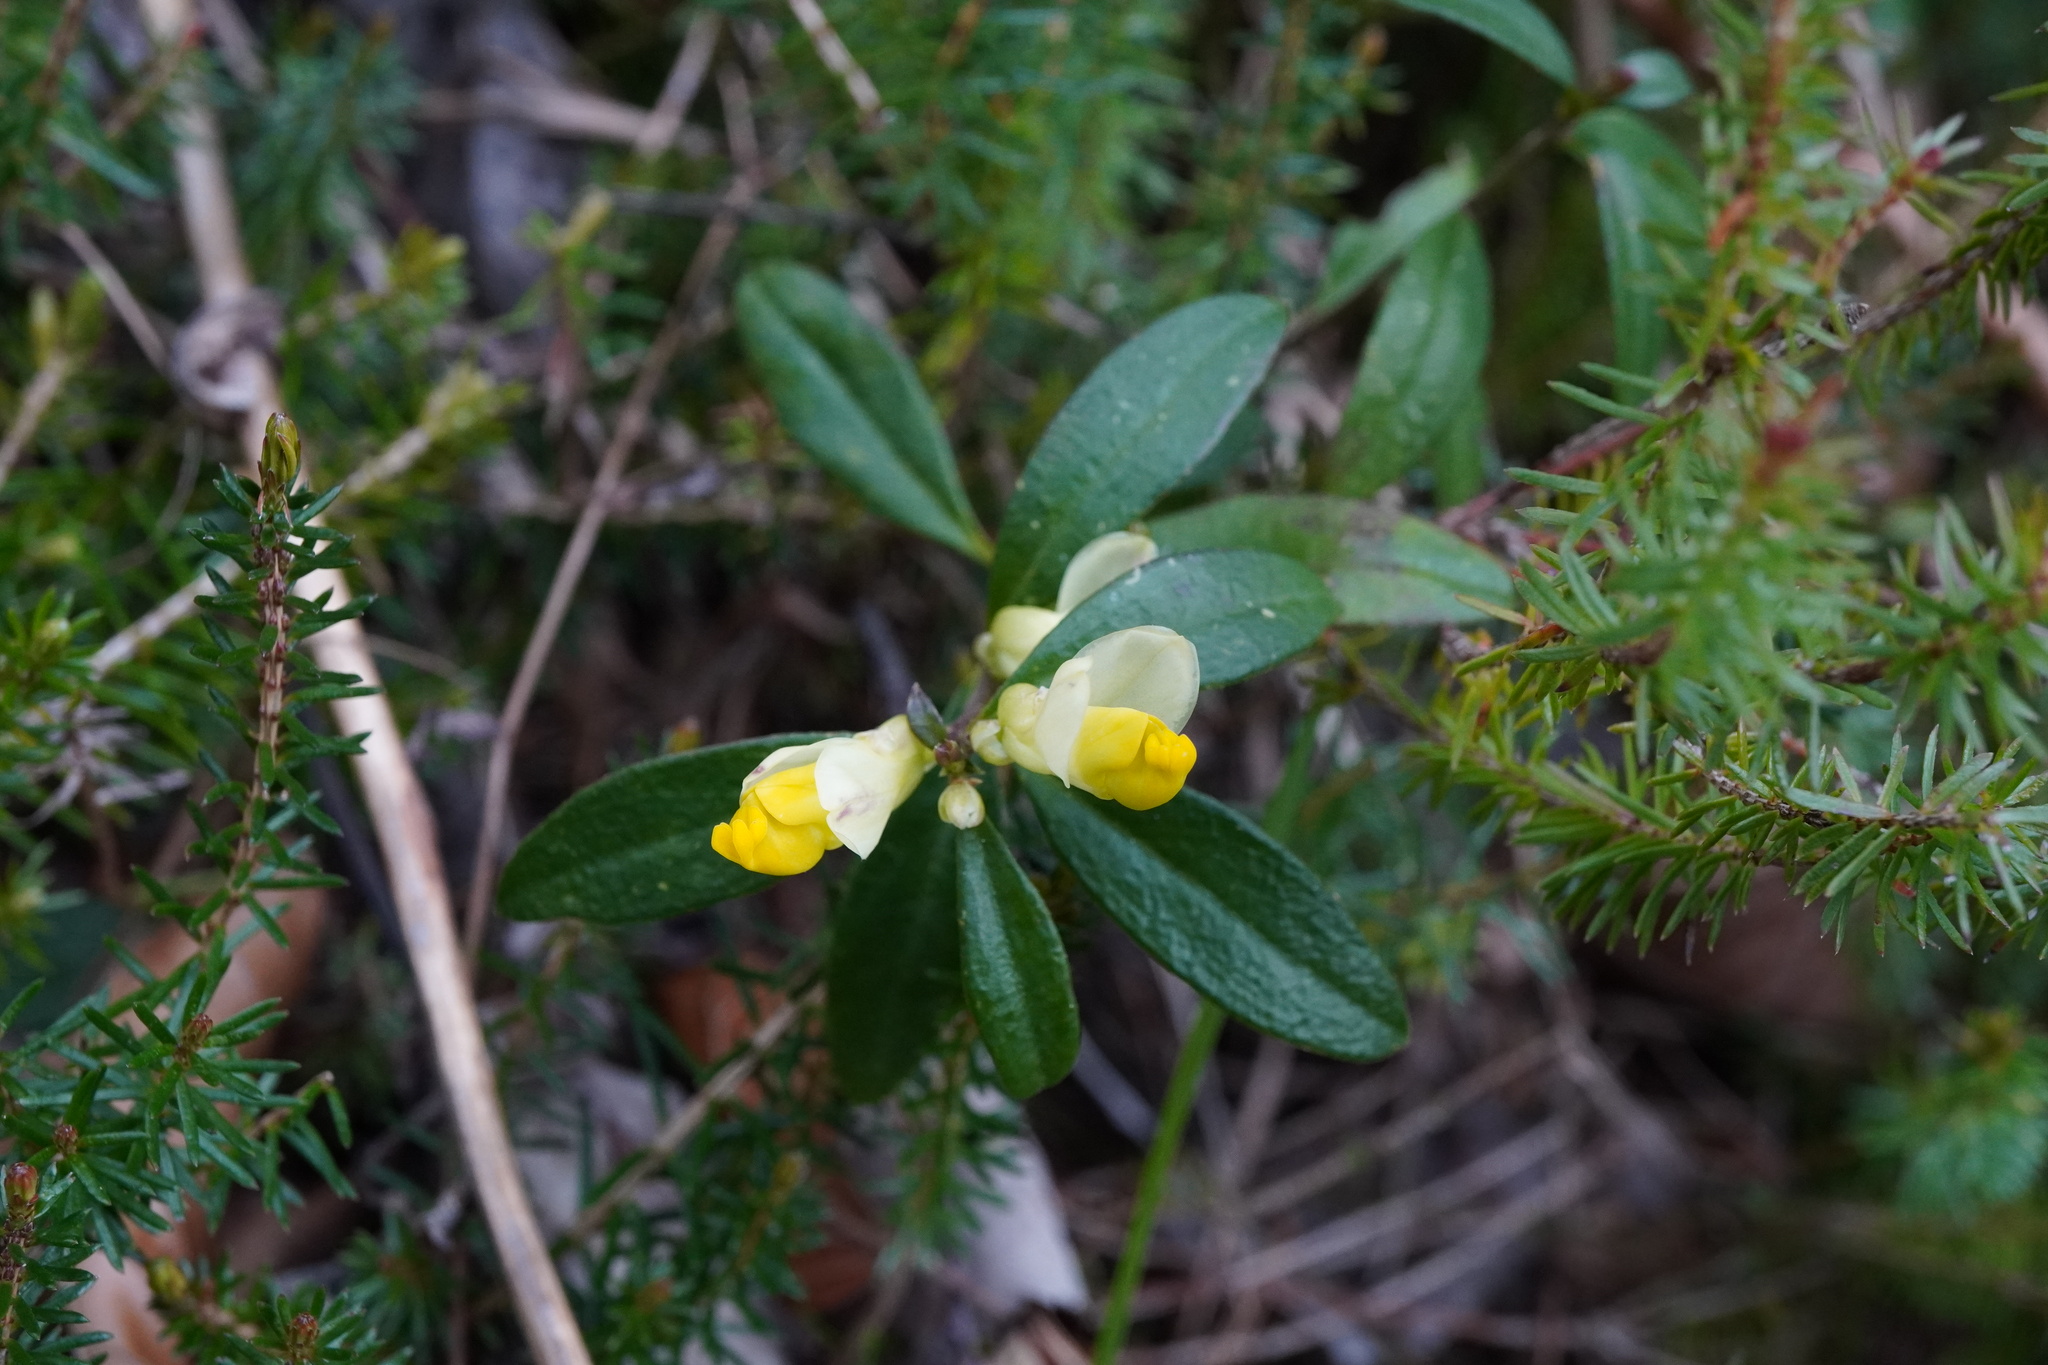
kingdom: Plantae
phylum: Tracheophyta
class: Magnoliopsida
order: Fabales
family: Polygalaceae
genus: Polygaloides
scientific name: Polygaloides chamaebuxus
